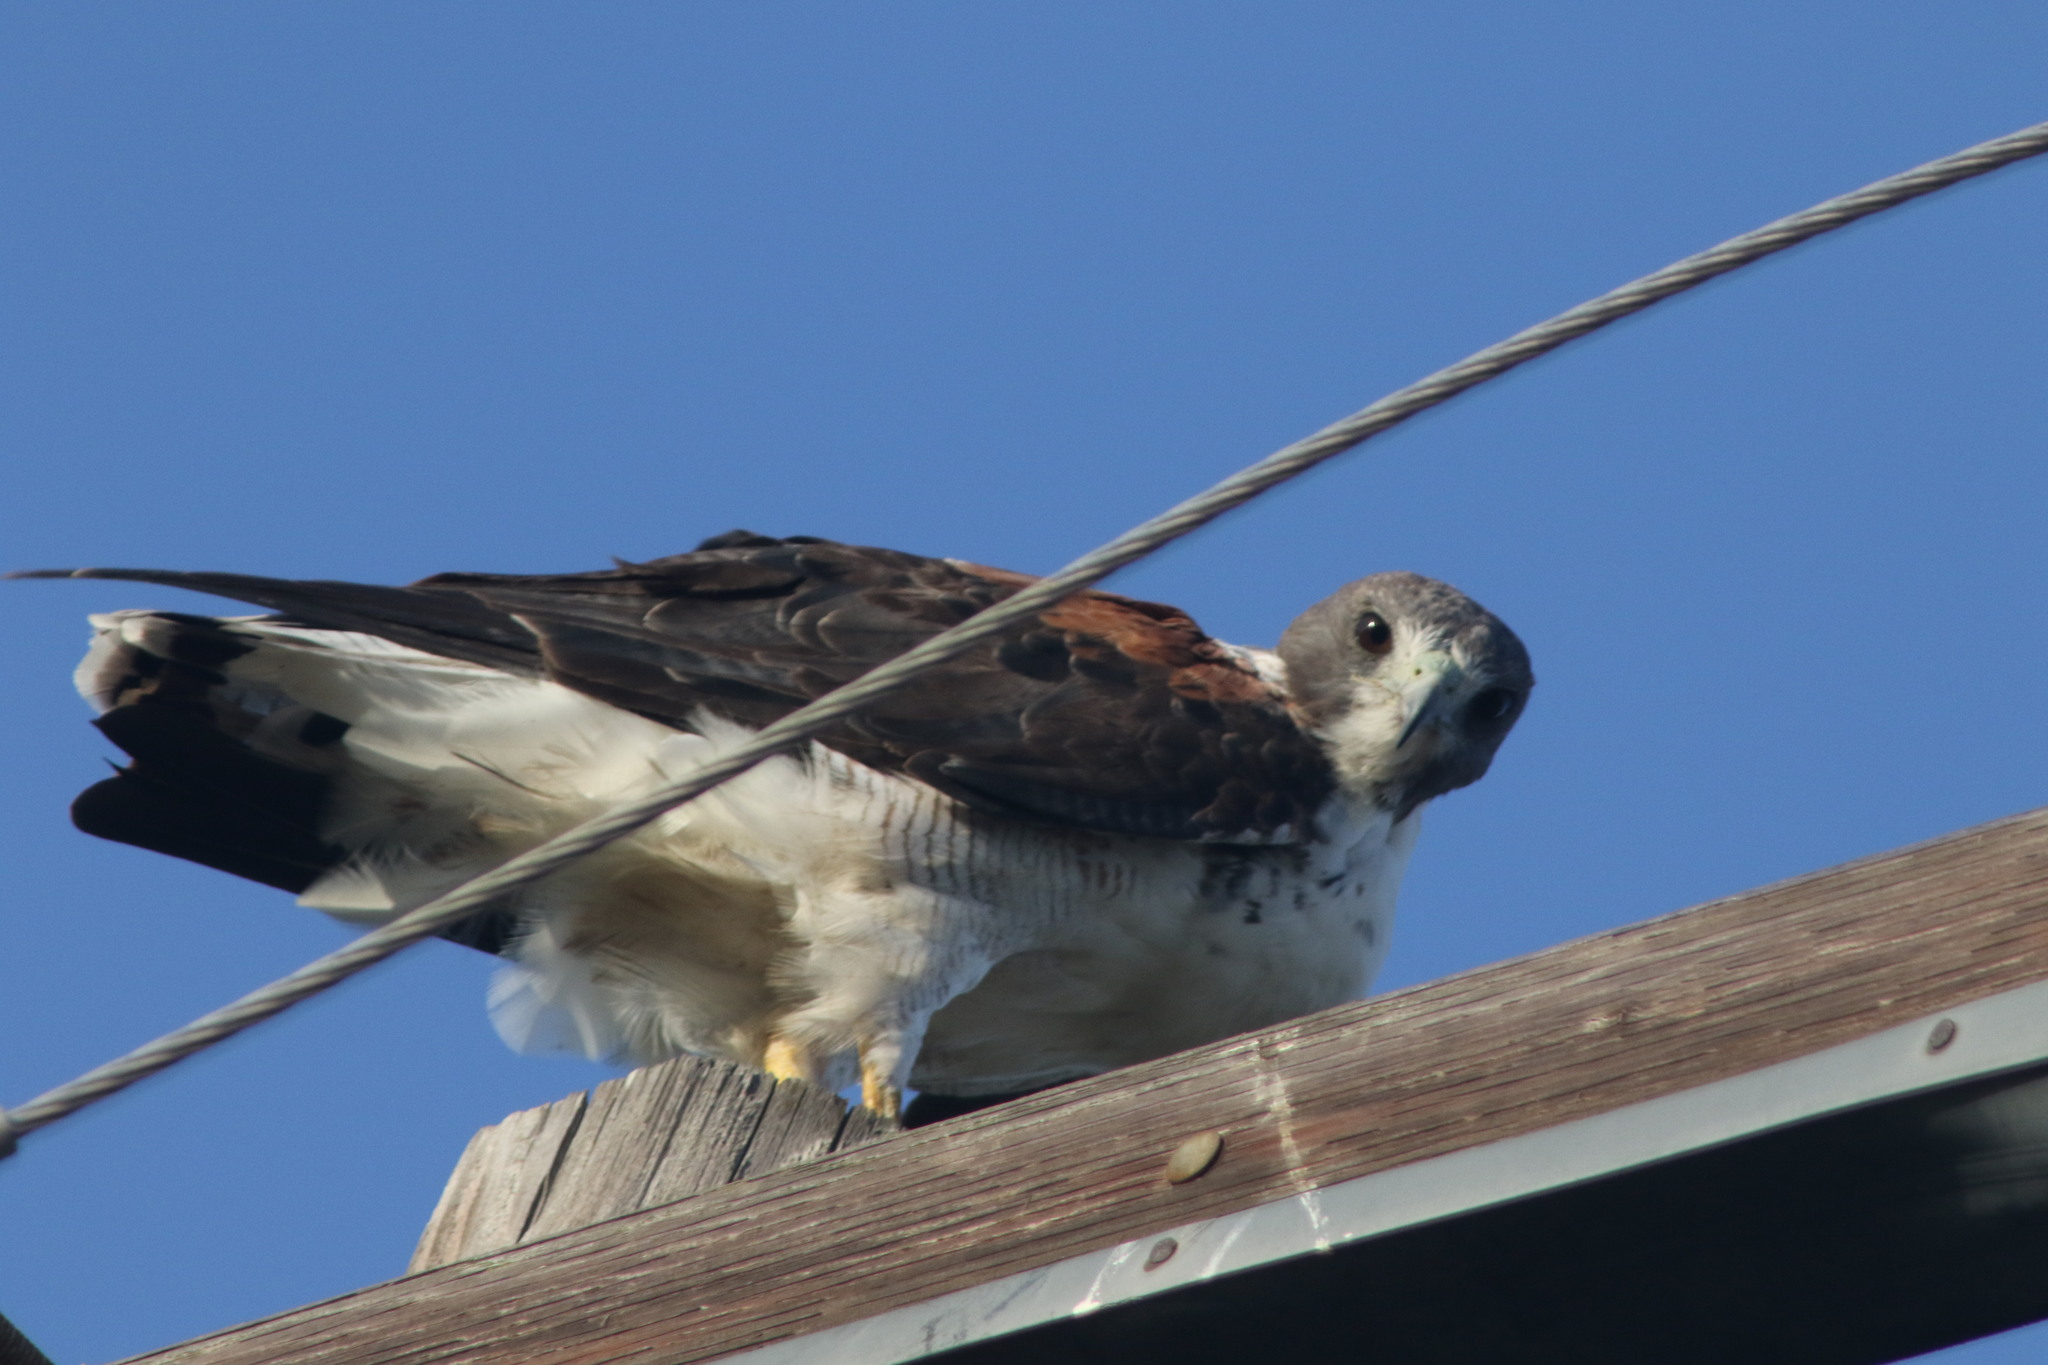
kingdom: Animalia
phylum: Chordata
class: Aves
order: Accipitriformes
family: Accipitridae
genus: Buteo
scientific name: Buteo albicaudatus
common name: White-tailed hawk
